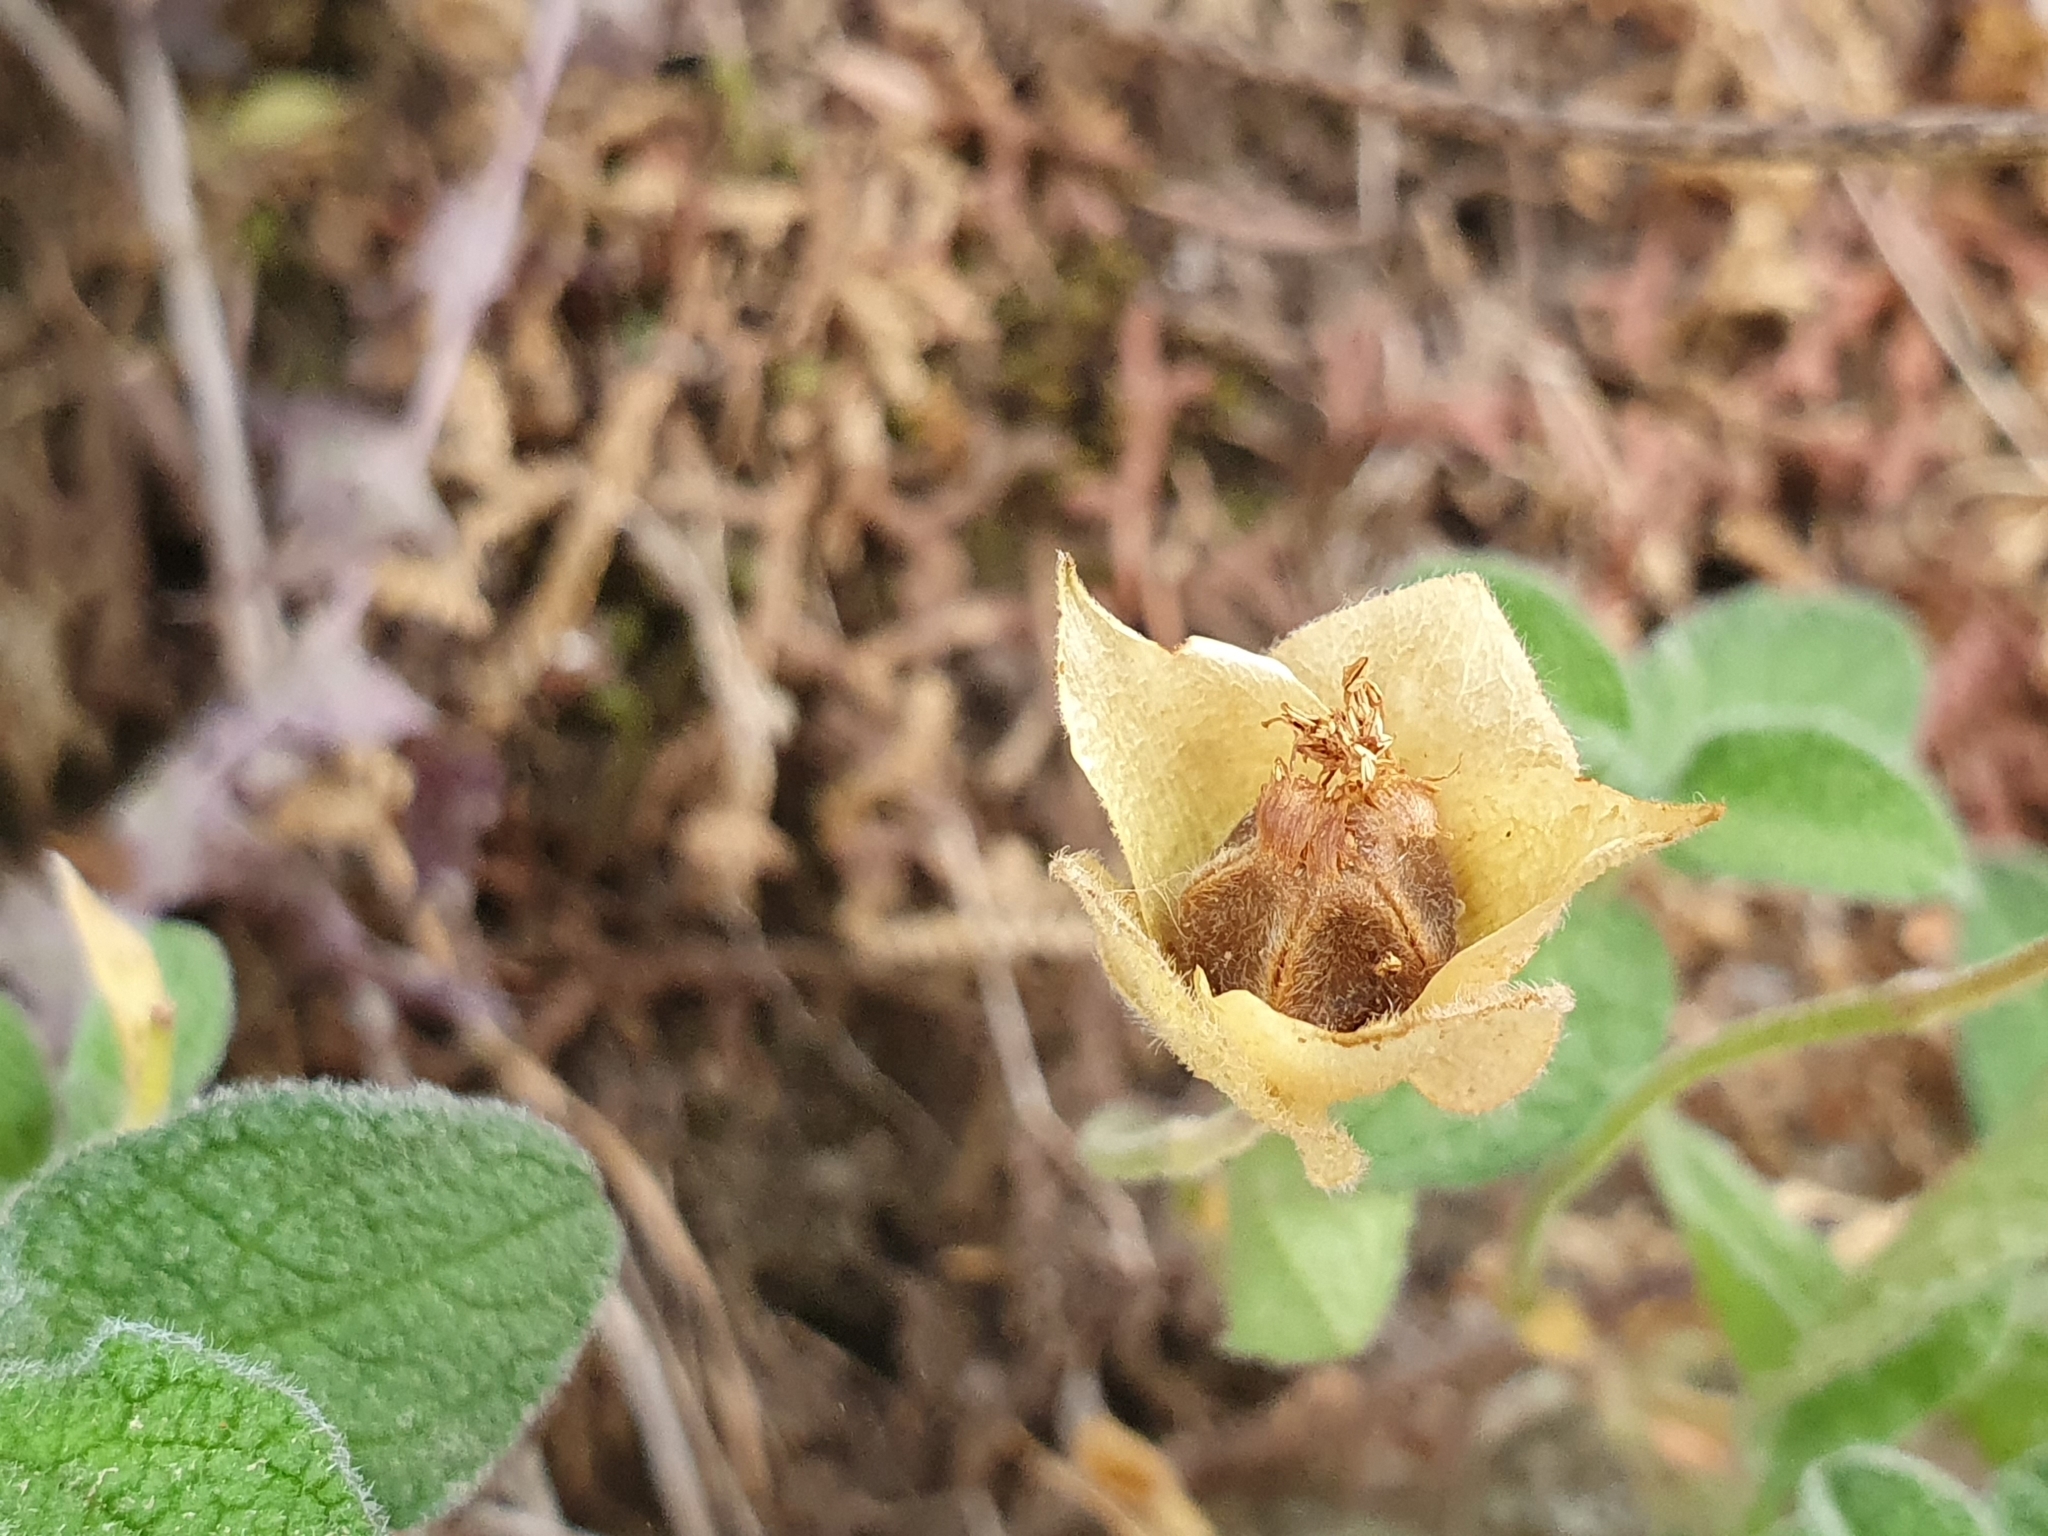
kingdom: Plantae
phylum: Tracheophyta
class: Magnoliopsida
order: Malvales
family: Cistaceae
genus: Cistus
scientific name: Cistus salviifolius
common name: Salvia cistus
